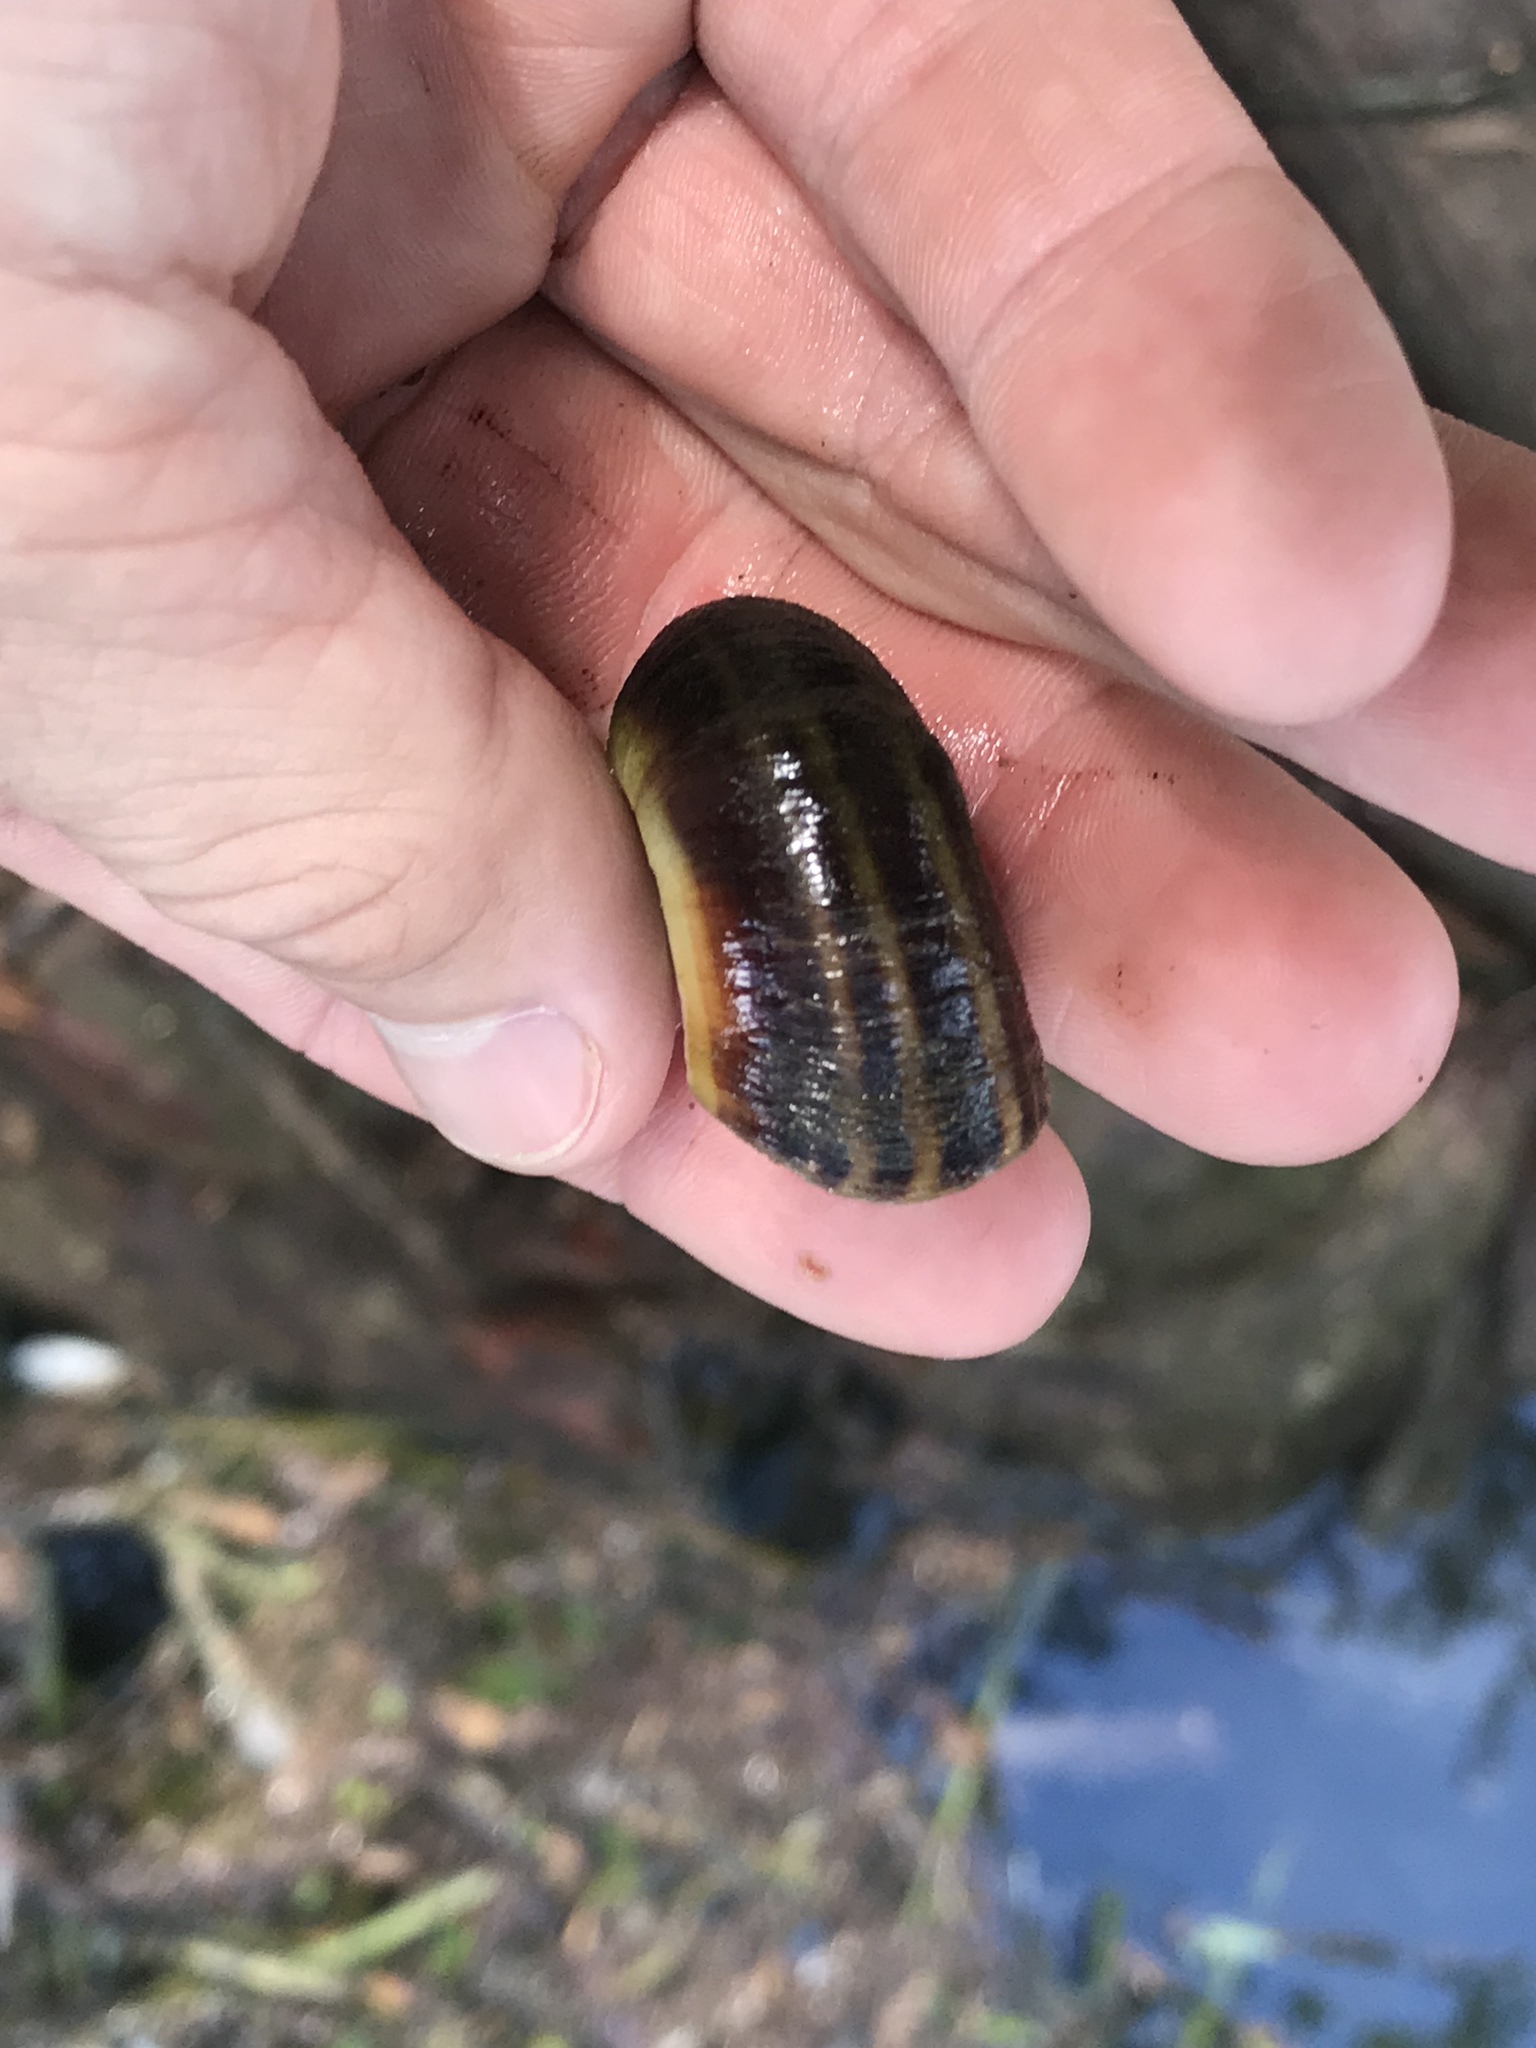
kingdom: Animalia
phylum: Mollusca
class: Gastropoda
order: Architaenioglossa
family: Ampullariidae
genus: Marisa
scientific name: Marisa cornuarietis
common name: Giant ramshorn snail
